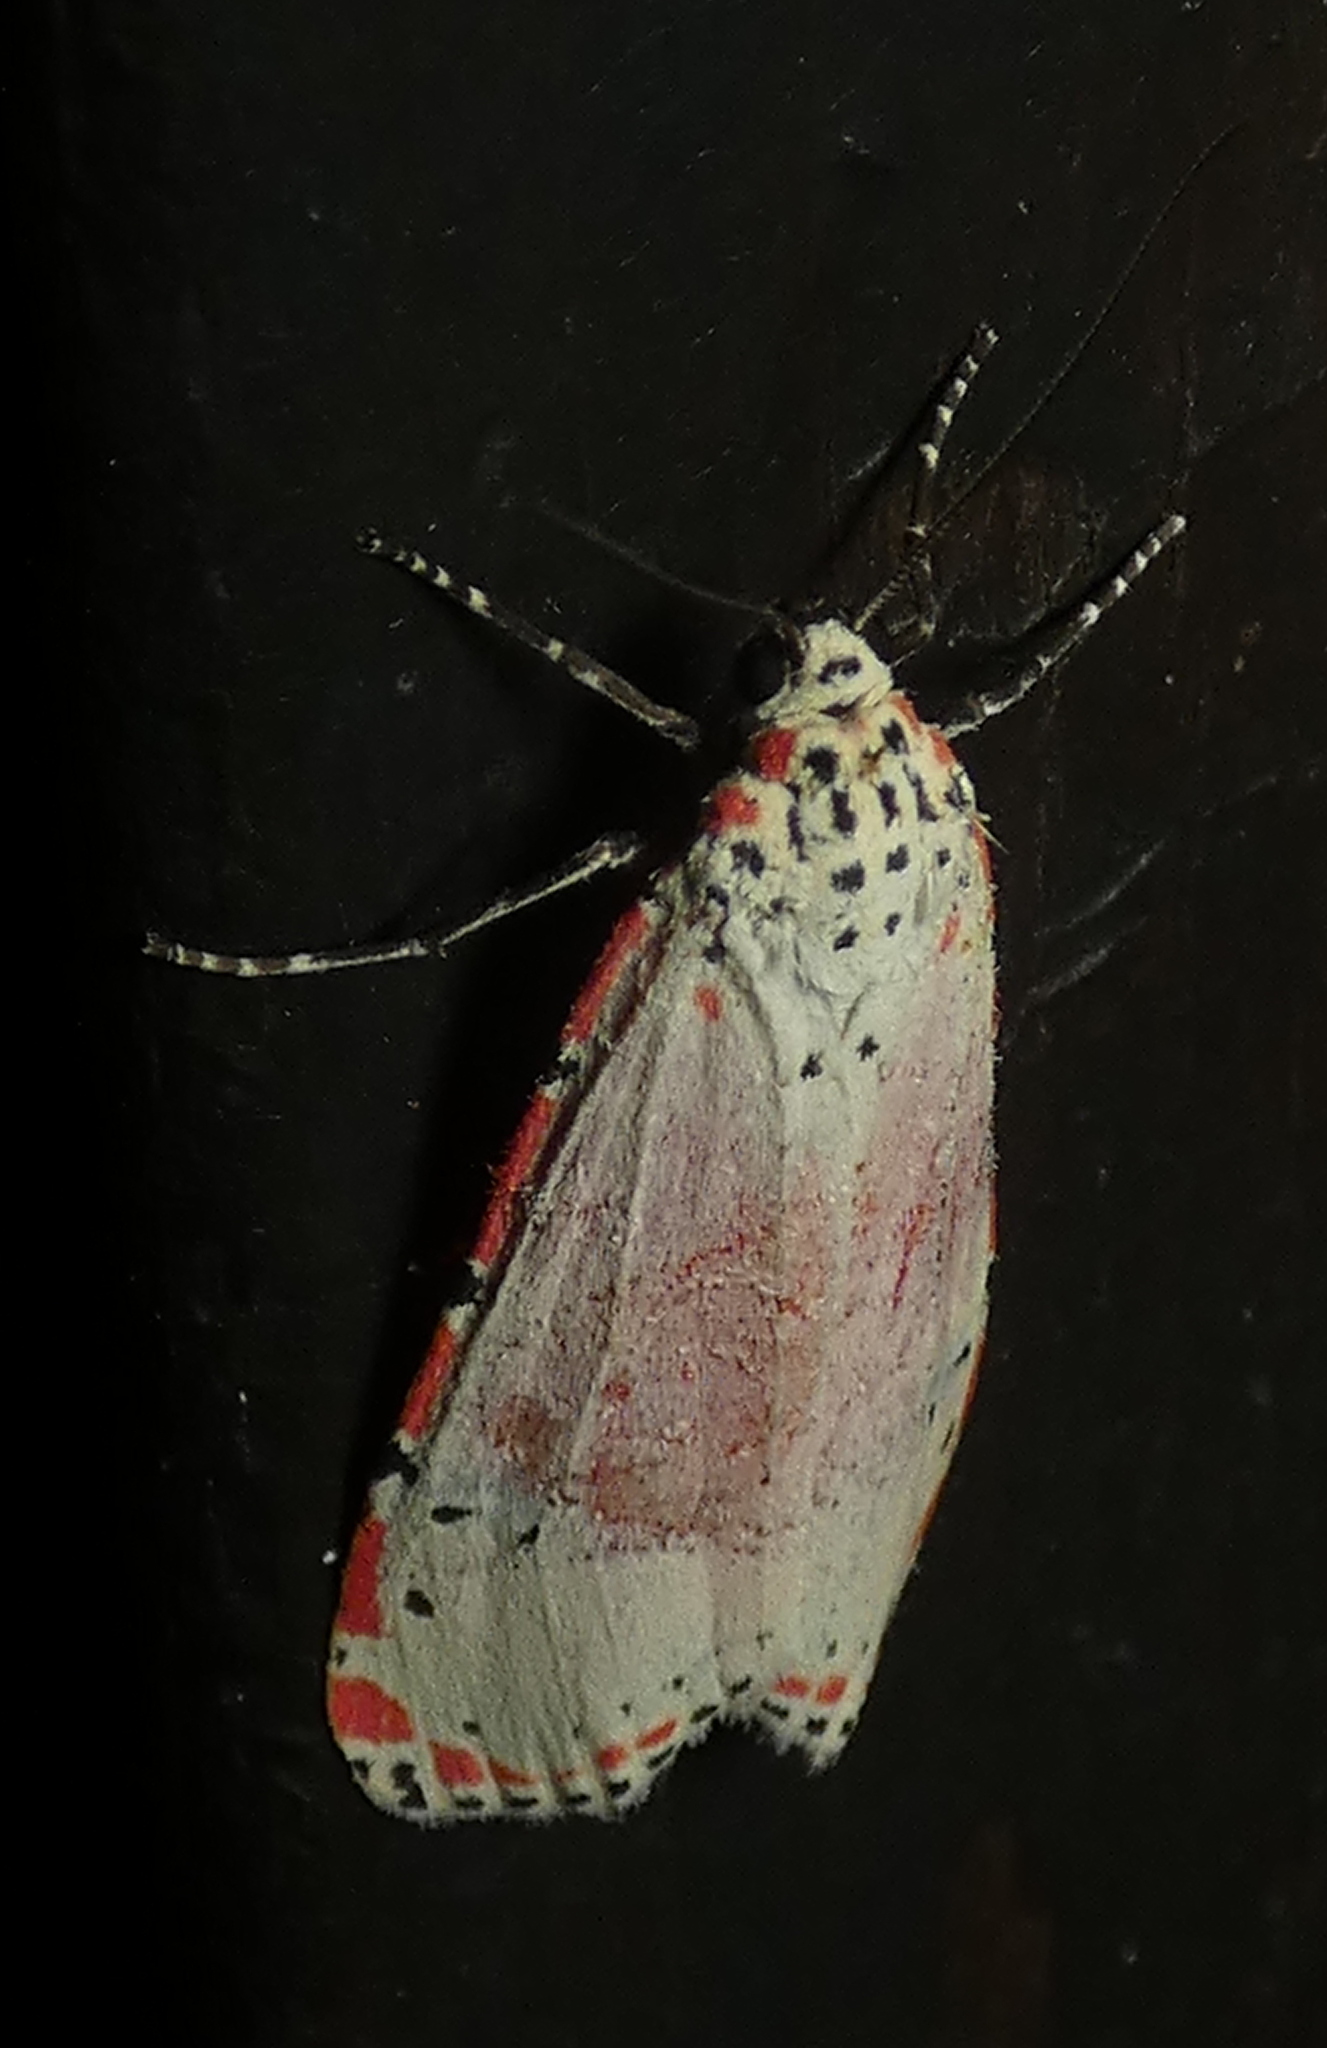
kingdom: Animalia
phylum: Arthropoda
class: Insecta
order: Lepidoptera
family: Erebidae
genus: Utetheisa
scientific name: Utetheisa ornatrix
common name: Beautiful utetheisa
